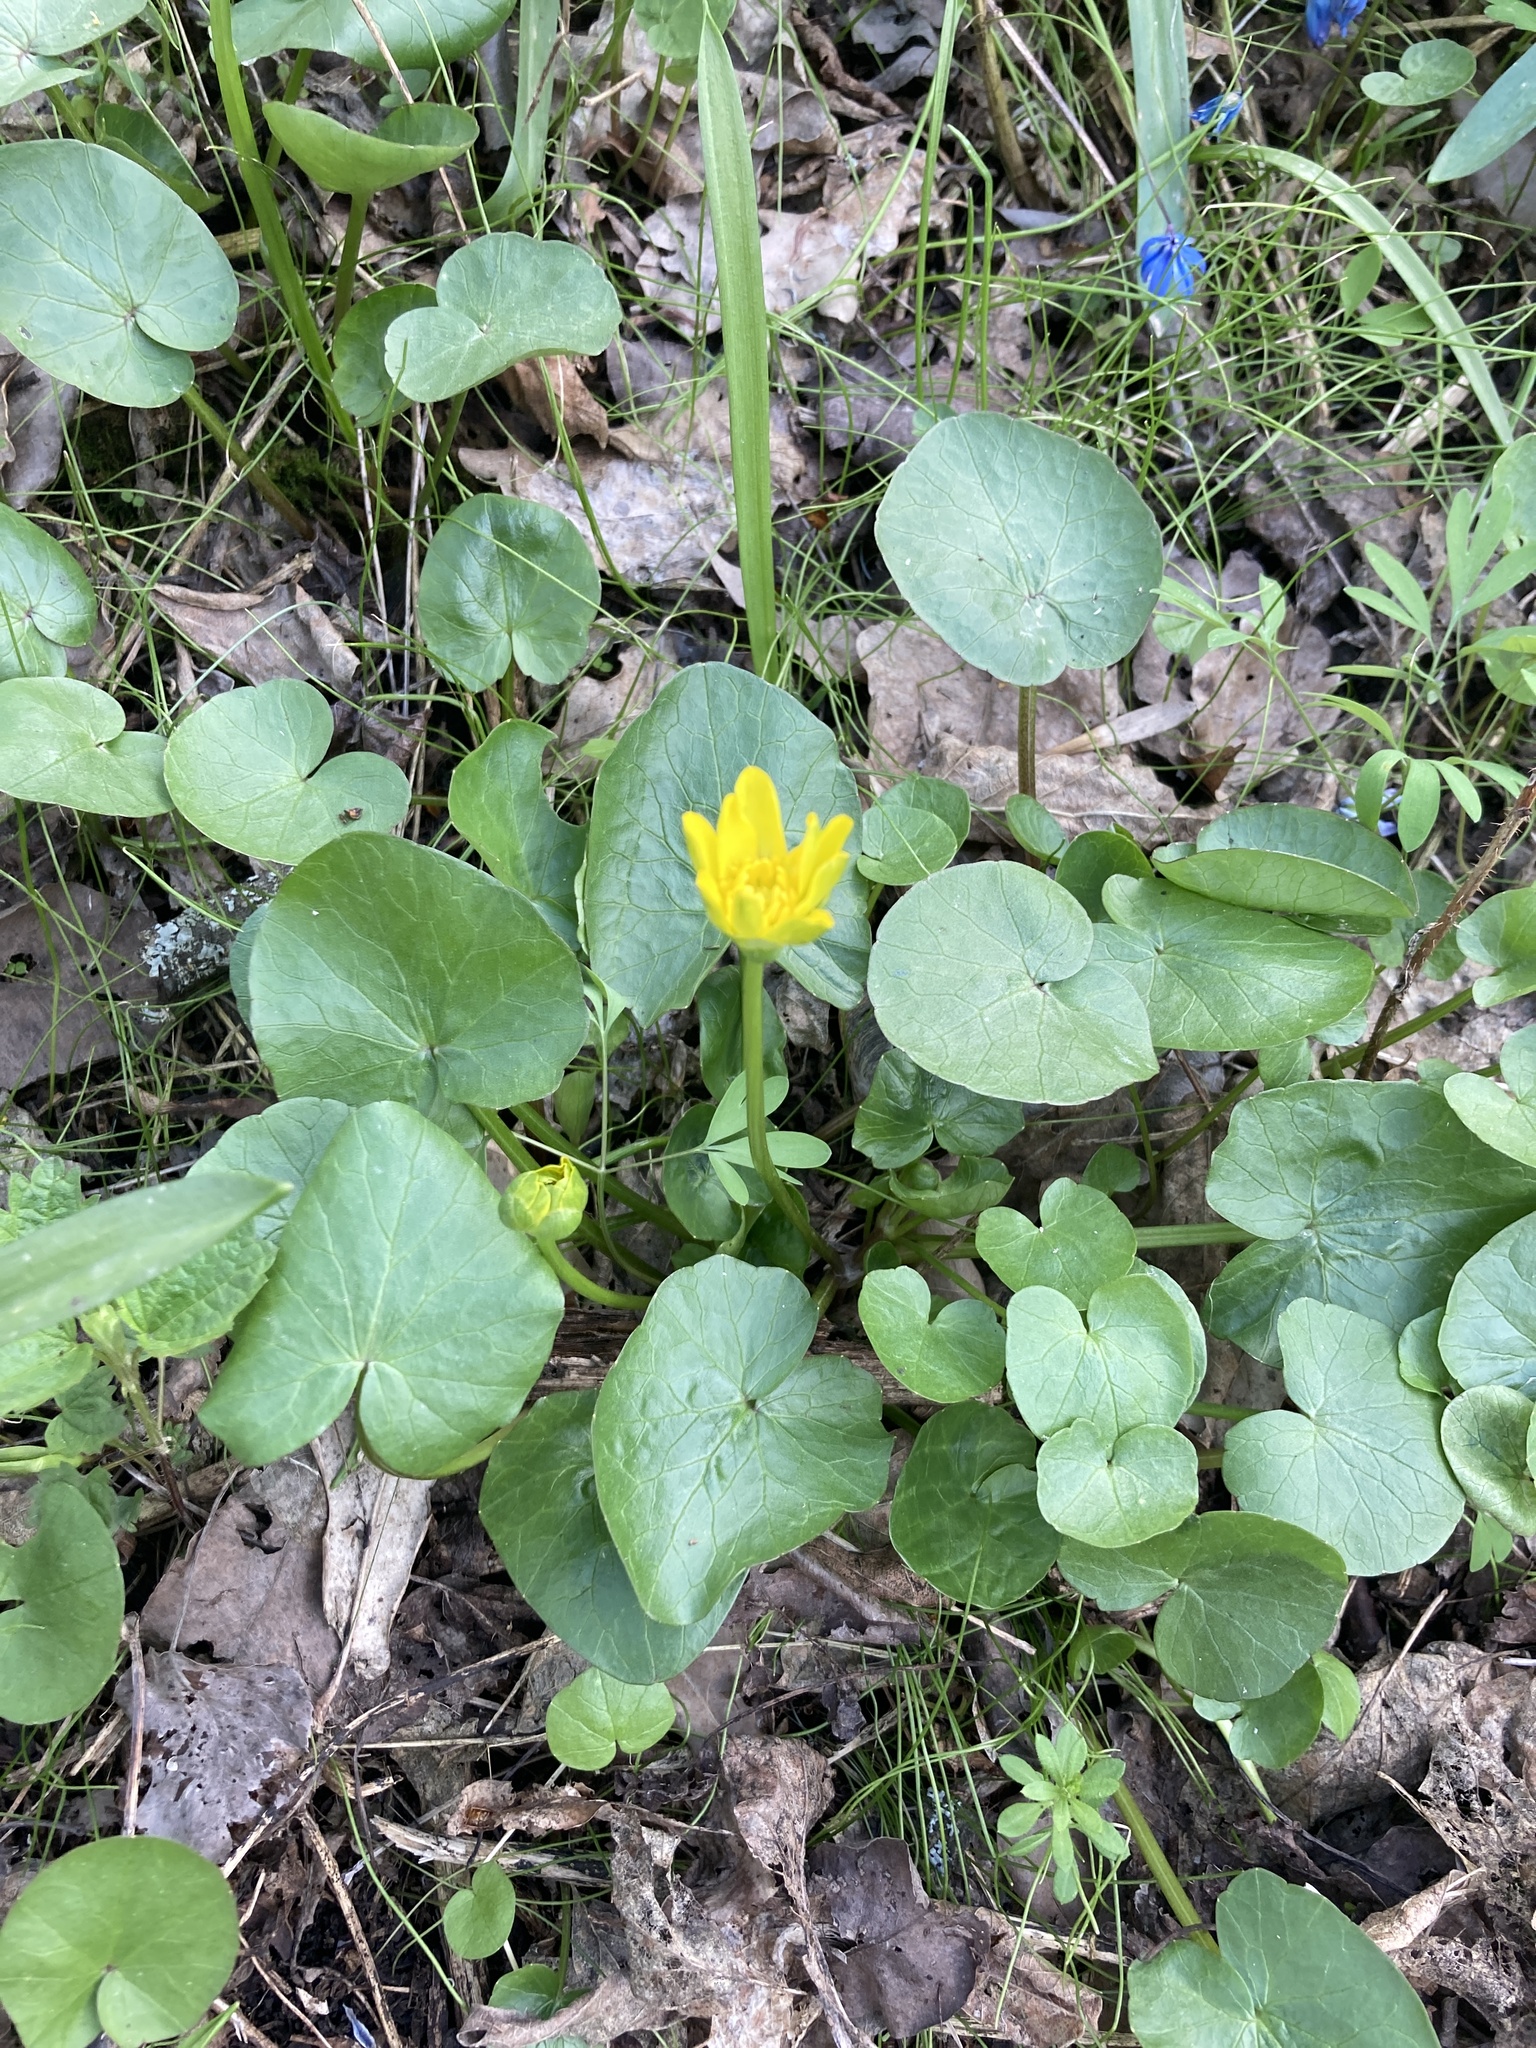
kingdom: Plantae
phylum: Tracheophyta
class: Magnoliopsida
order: Ranunculales
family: Ranunculaceae
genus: Ficaria
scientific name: Ficaria verna
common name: Lesser celandine
